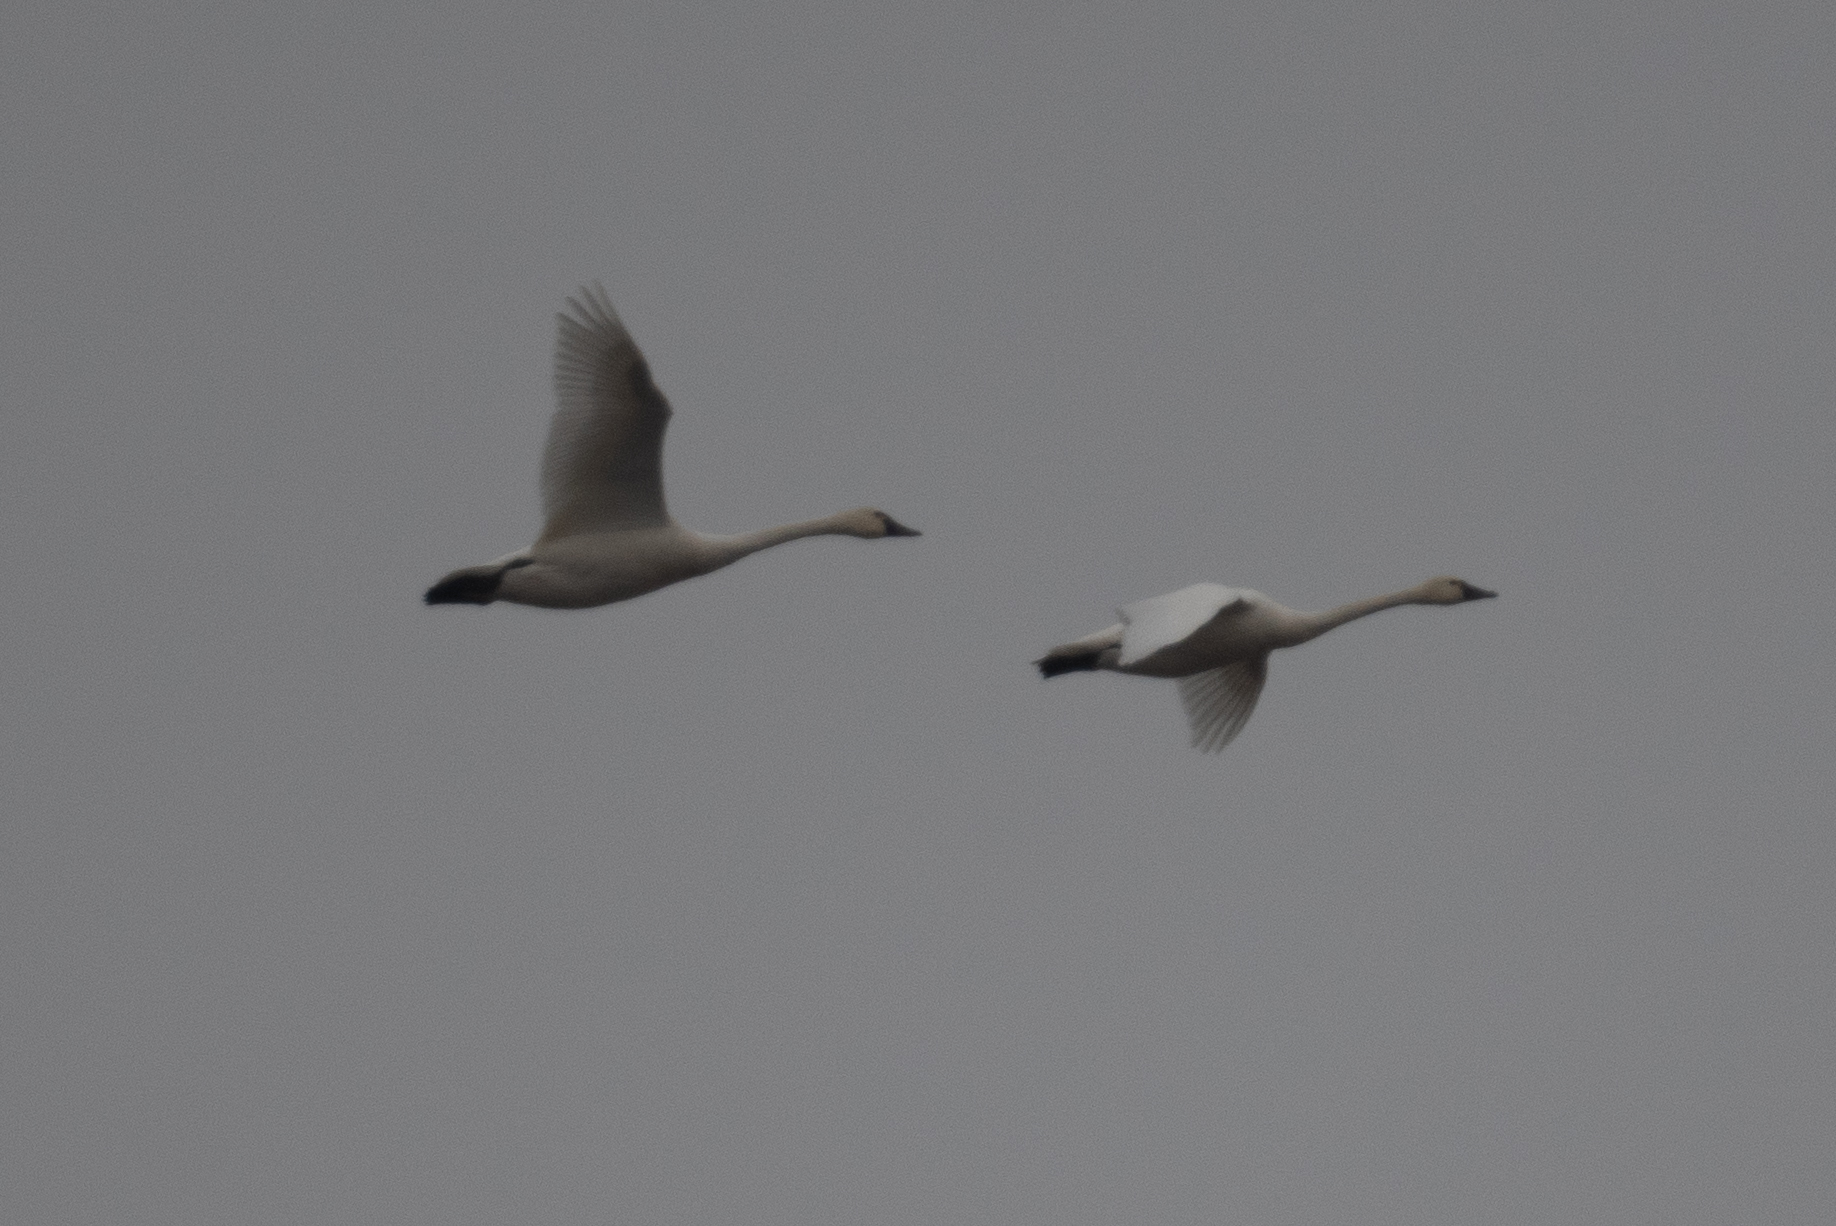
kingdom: Animalia
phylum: Chordata
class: Aves
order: Anseriformes
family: Anatidae
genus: Cygnus
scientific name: Cygnus columbianus
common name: Tundra swan
